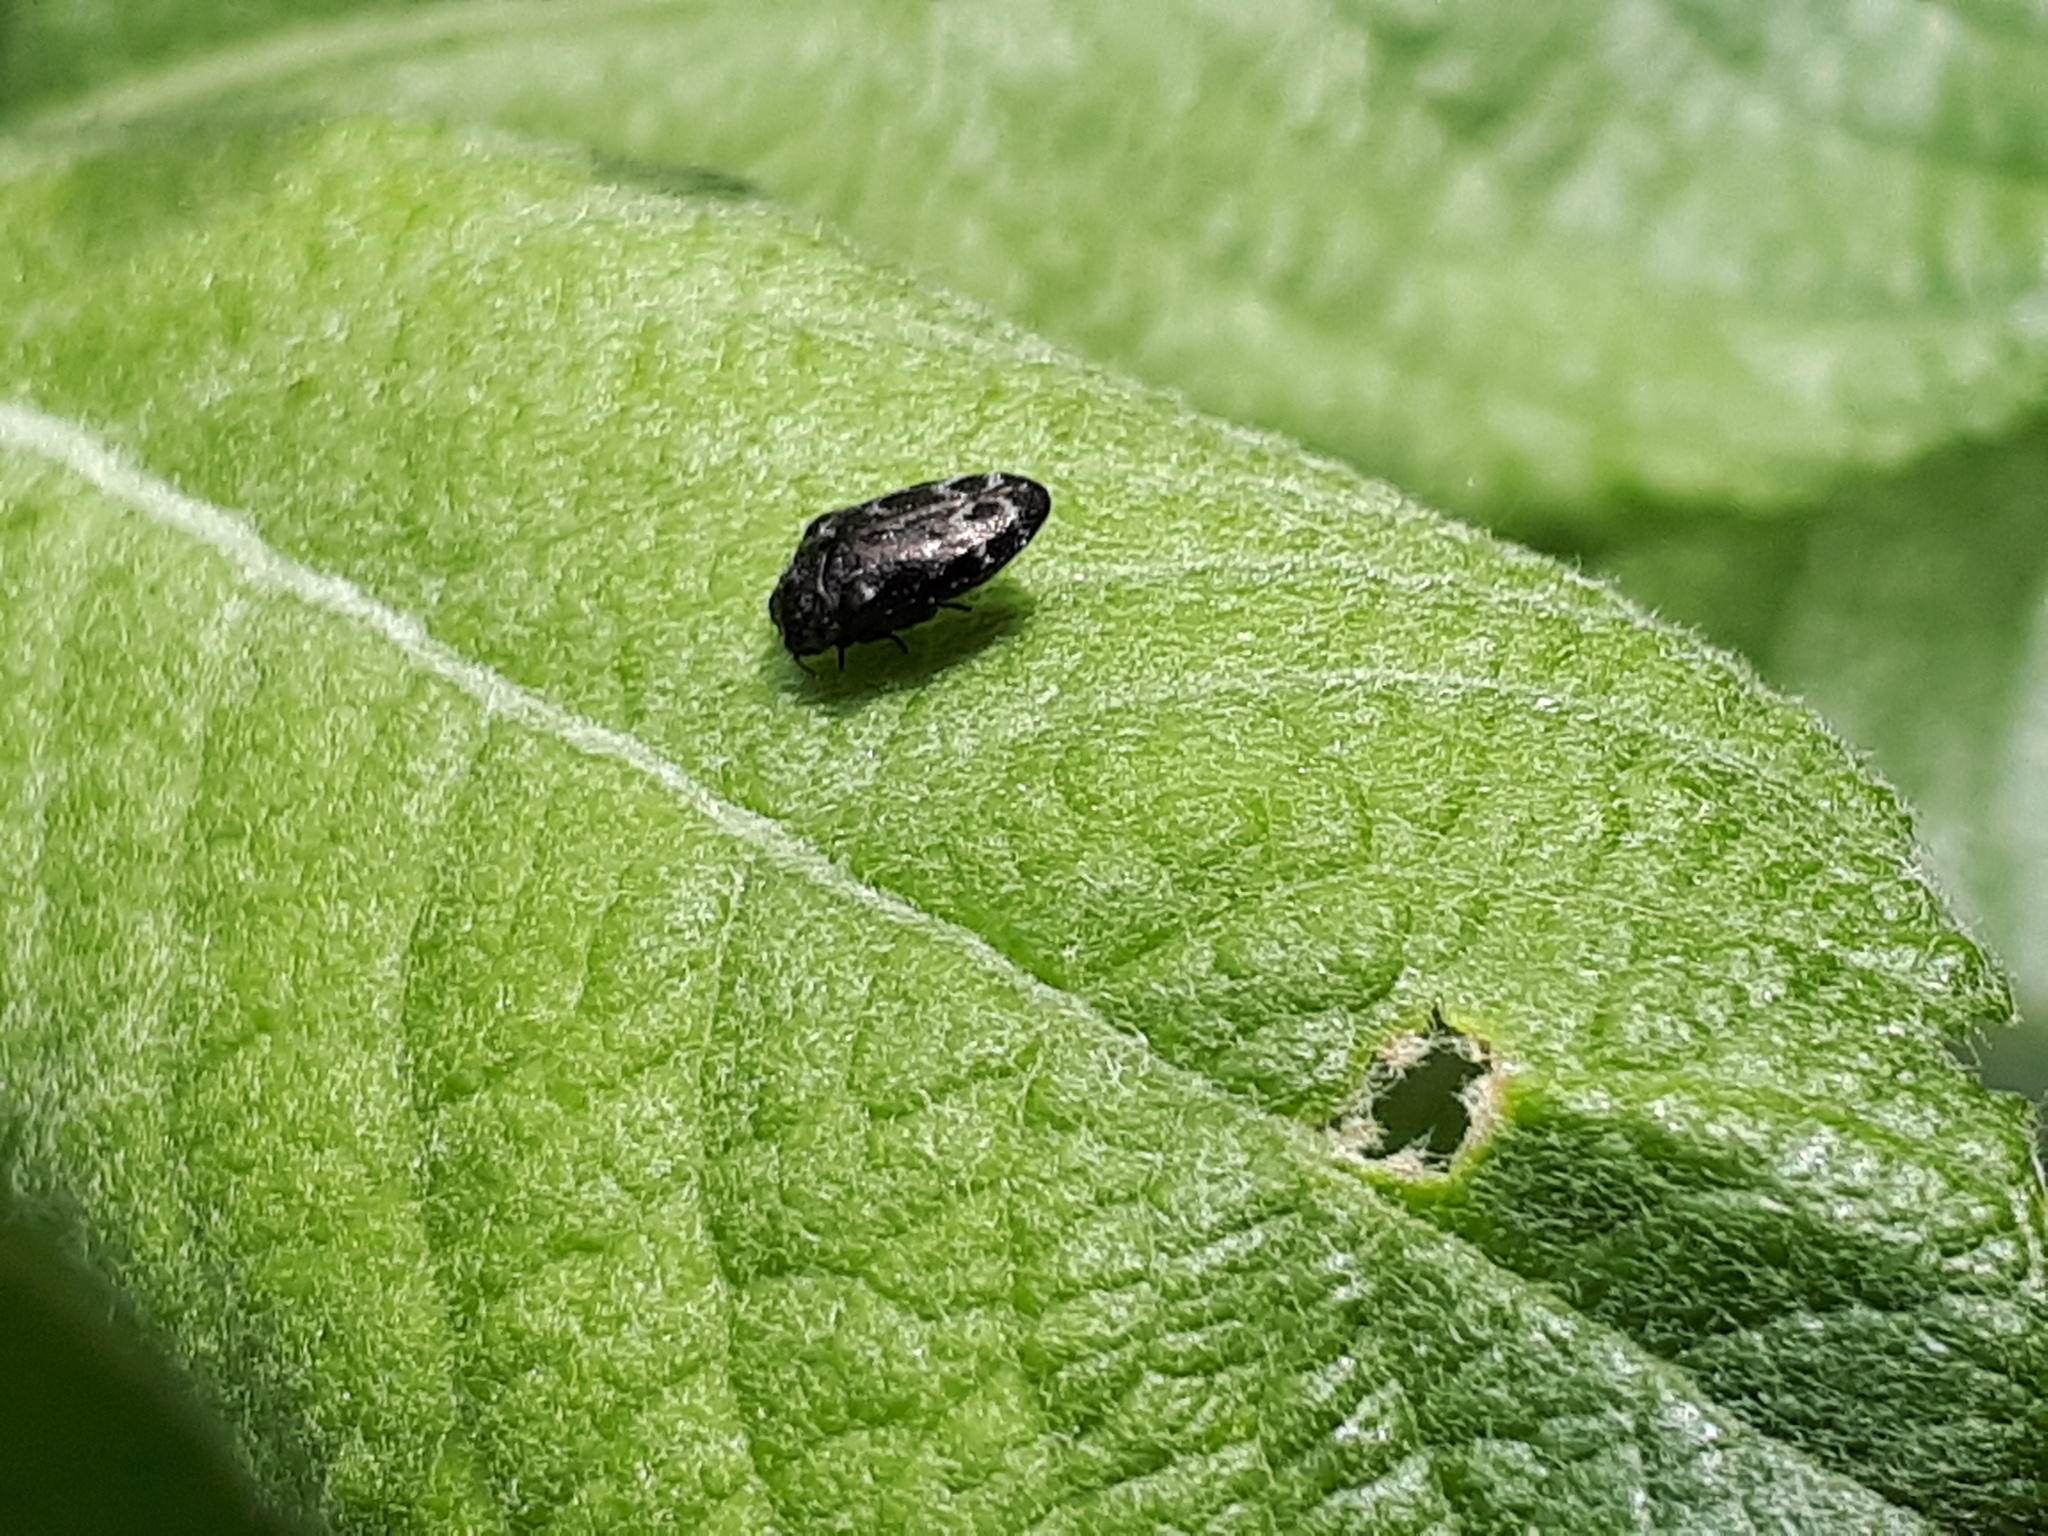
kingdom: Animalia
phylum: Arthropoda
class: Insecta
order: Coleoptera
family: Buprestidae
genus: Trachys
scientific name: Trachys minutus
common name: Metallic wood-boring beetle
